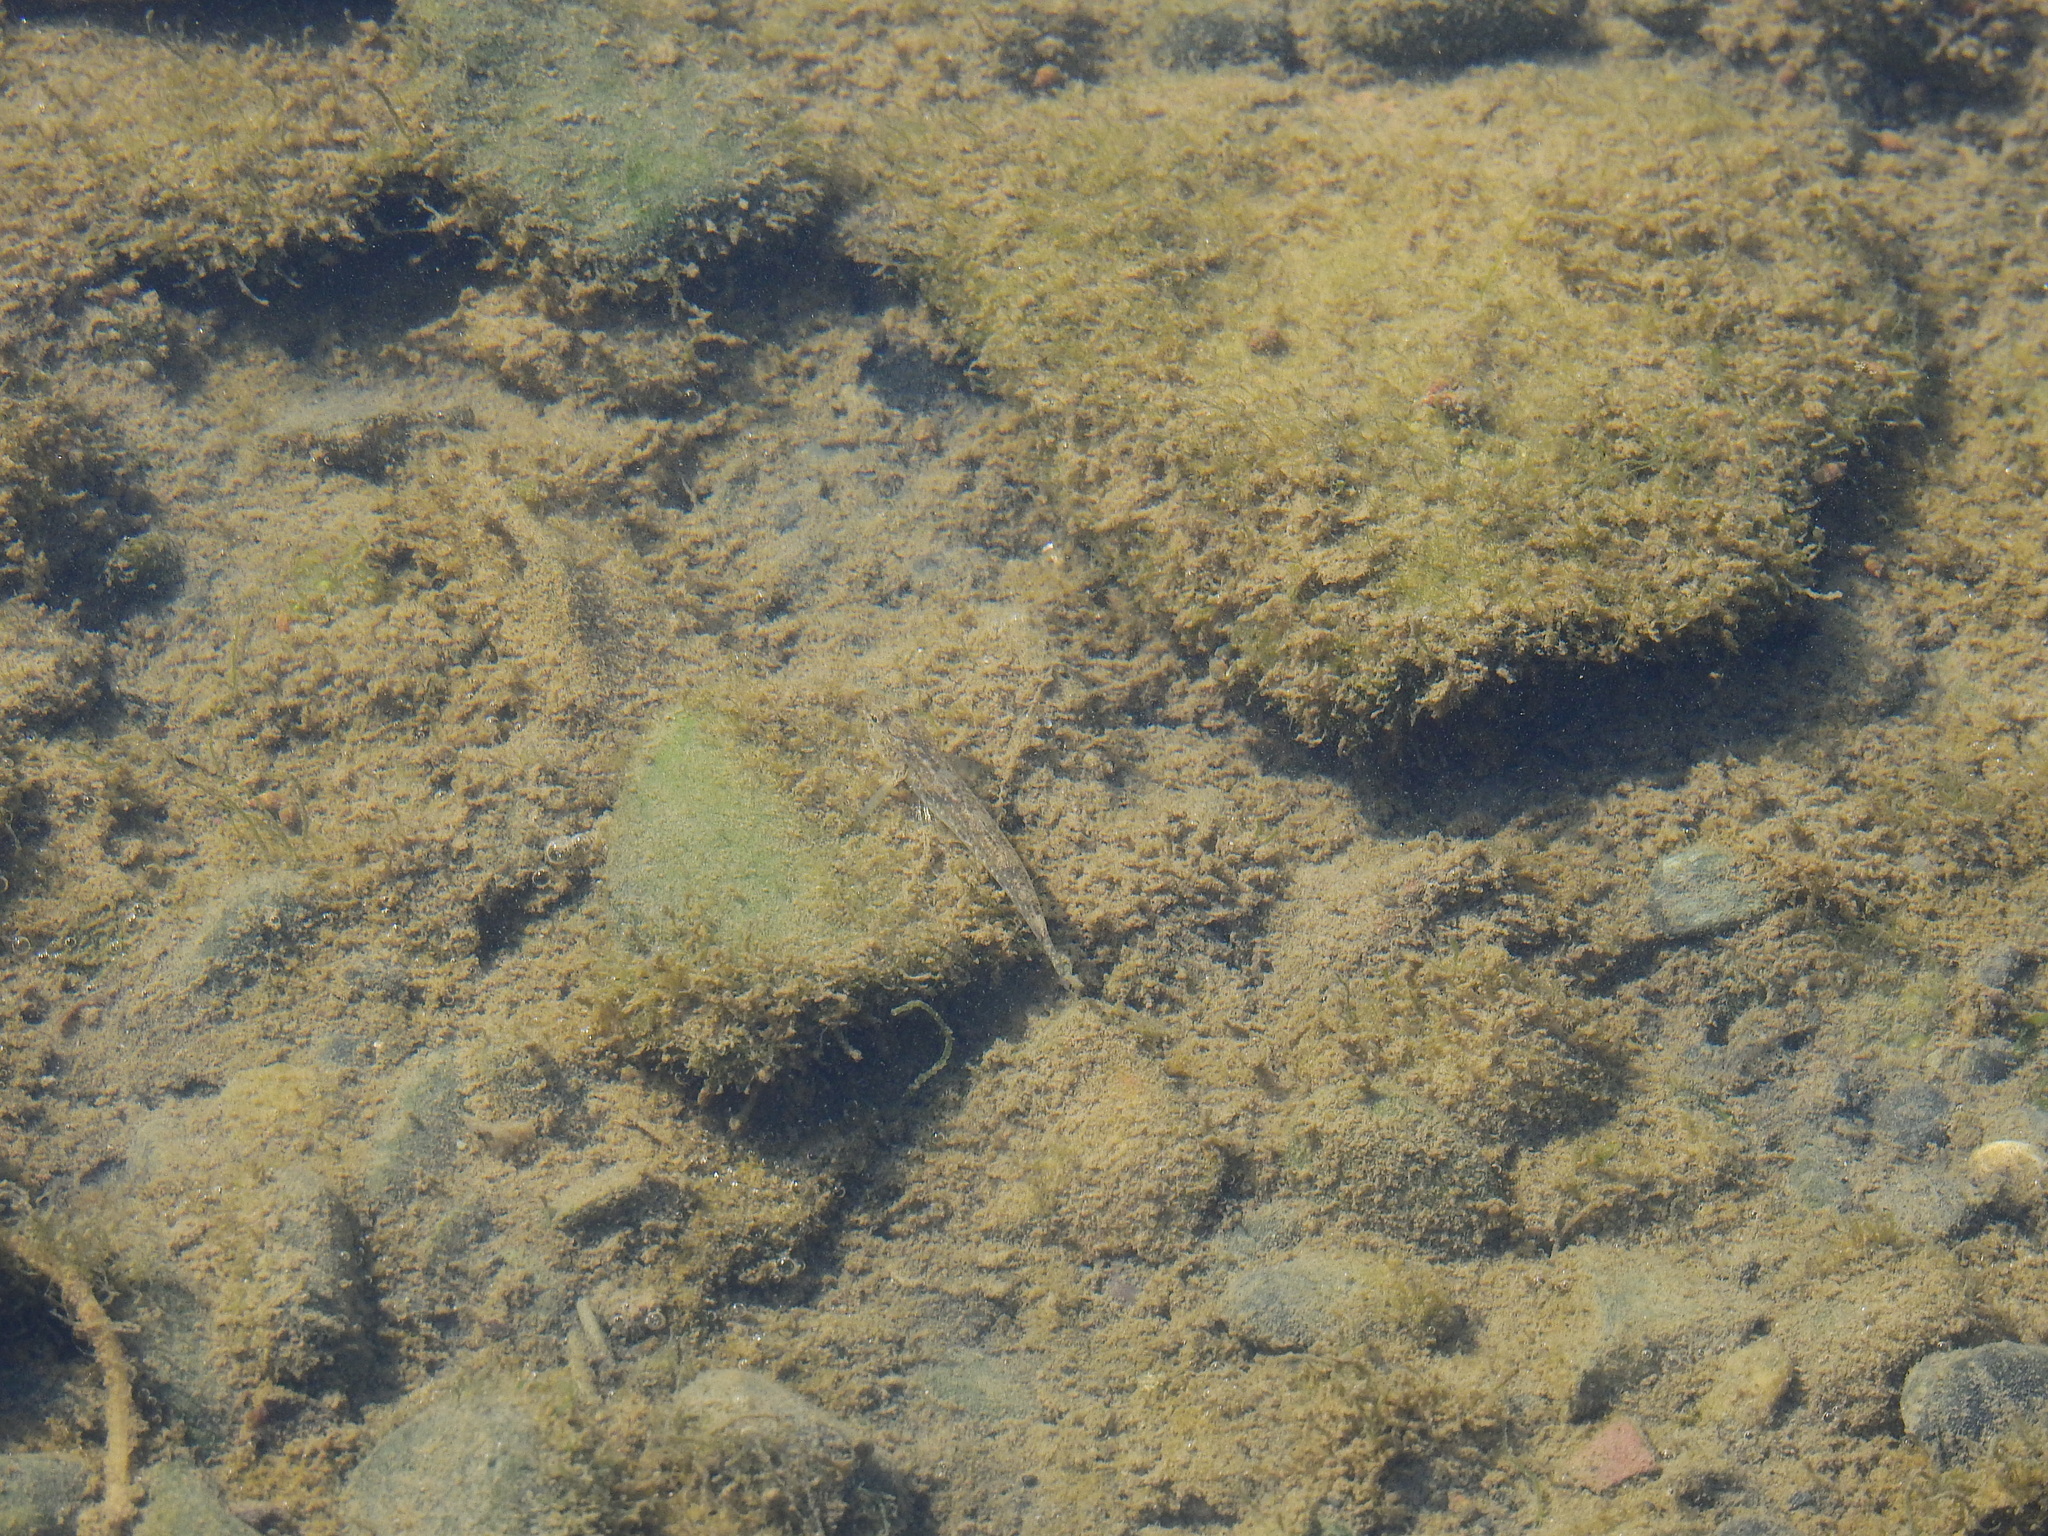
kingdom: Animalia
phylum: Chordata
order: Perciformes
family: Gobiidae
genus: Pomatoschistus
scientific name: Pomatoschistus microps
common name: Common goby
